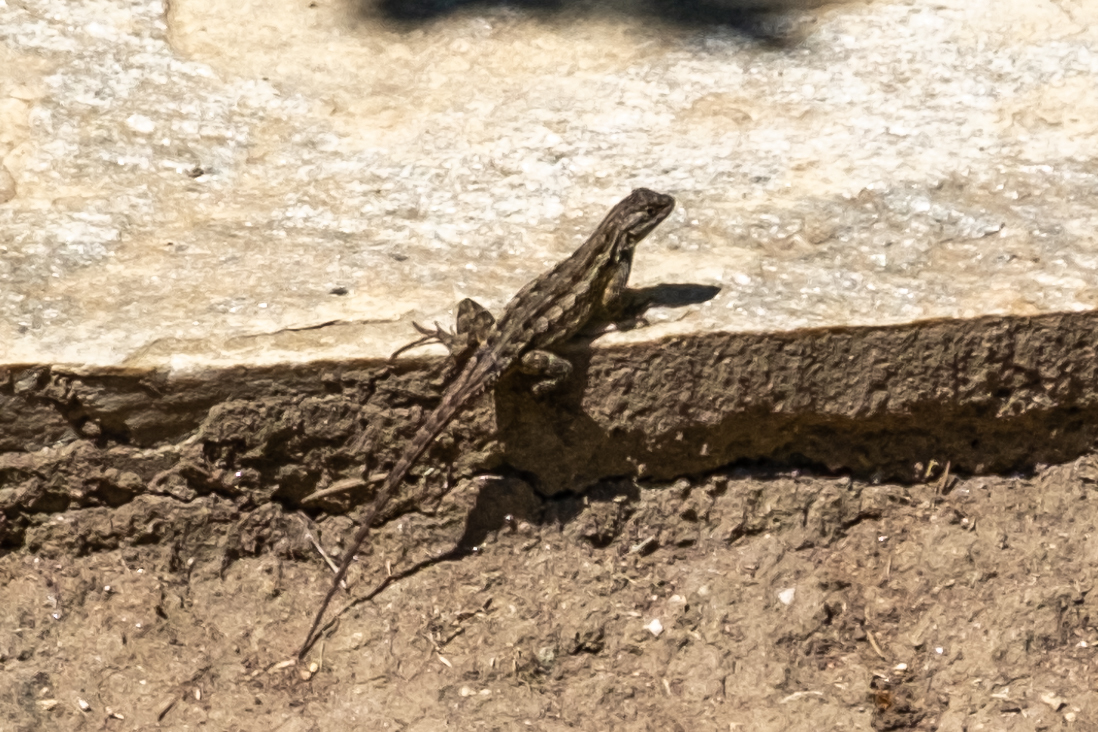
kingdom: Animalia
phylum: Chordata
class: Squamata
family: Phrynosomatidae
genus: Sceloporus
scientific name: Sceloporus occidentalis
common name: Western fence lizard
